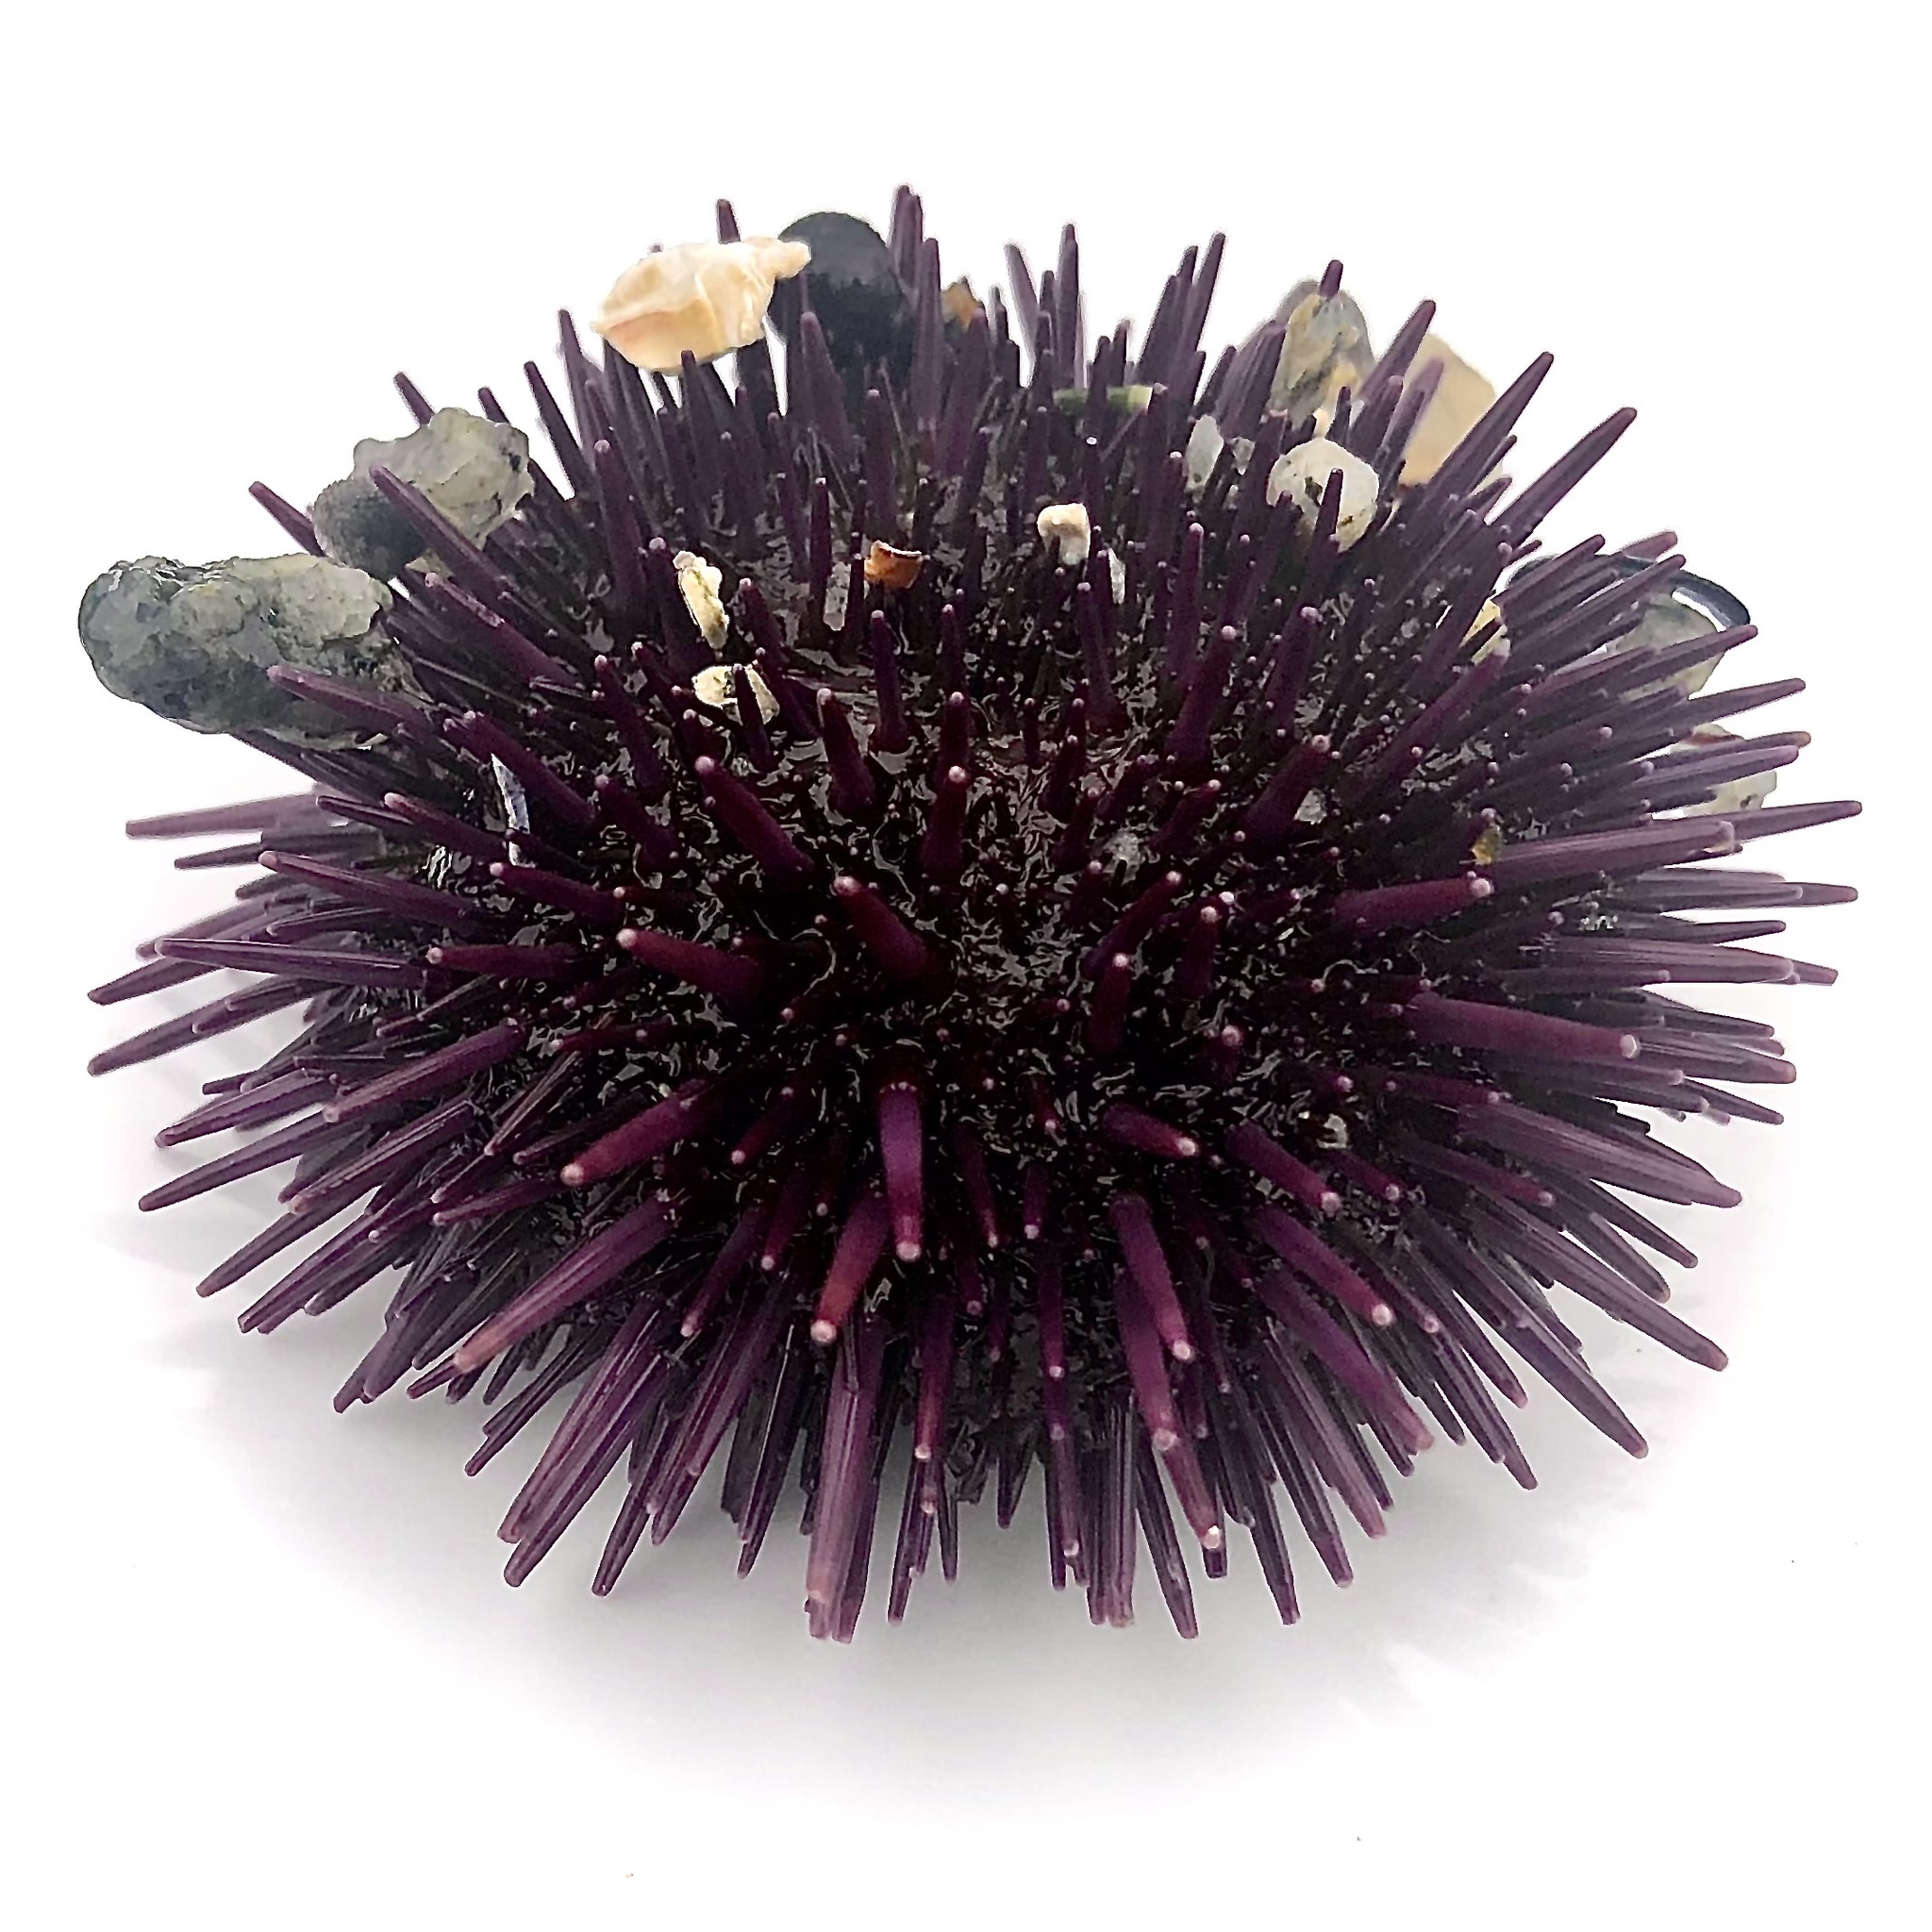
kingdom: Animalia
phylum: Echinodermata
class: Echinoidea
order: Camarodonta
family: Strongylocentrotidae
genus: Strongylocentrotus
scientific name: Strongylocentrotus purpuratus
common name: Purple sea urchin
